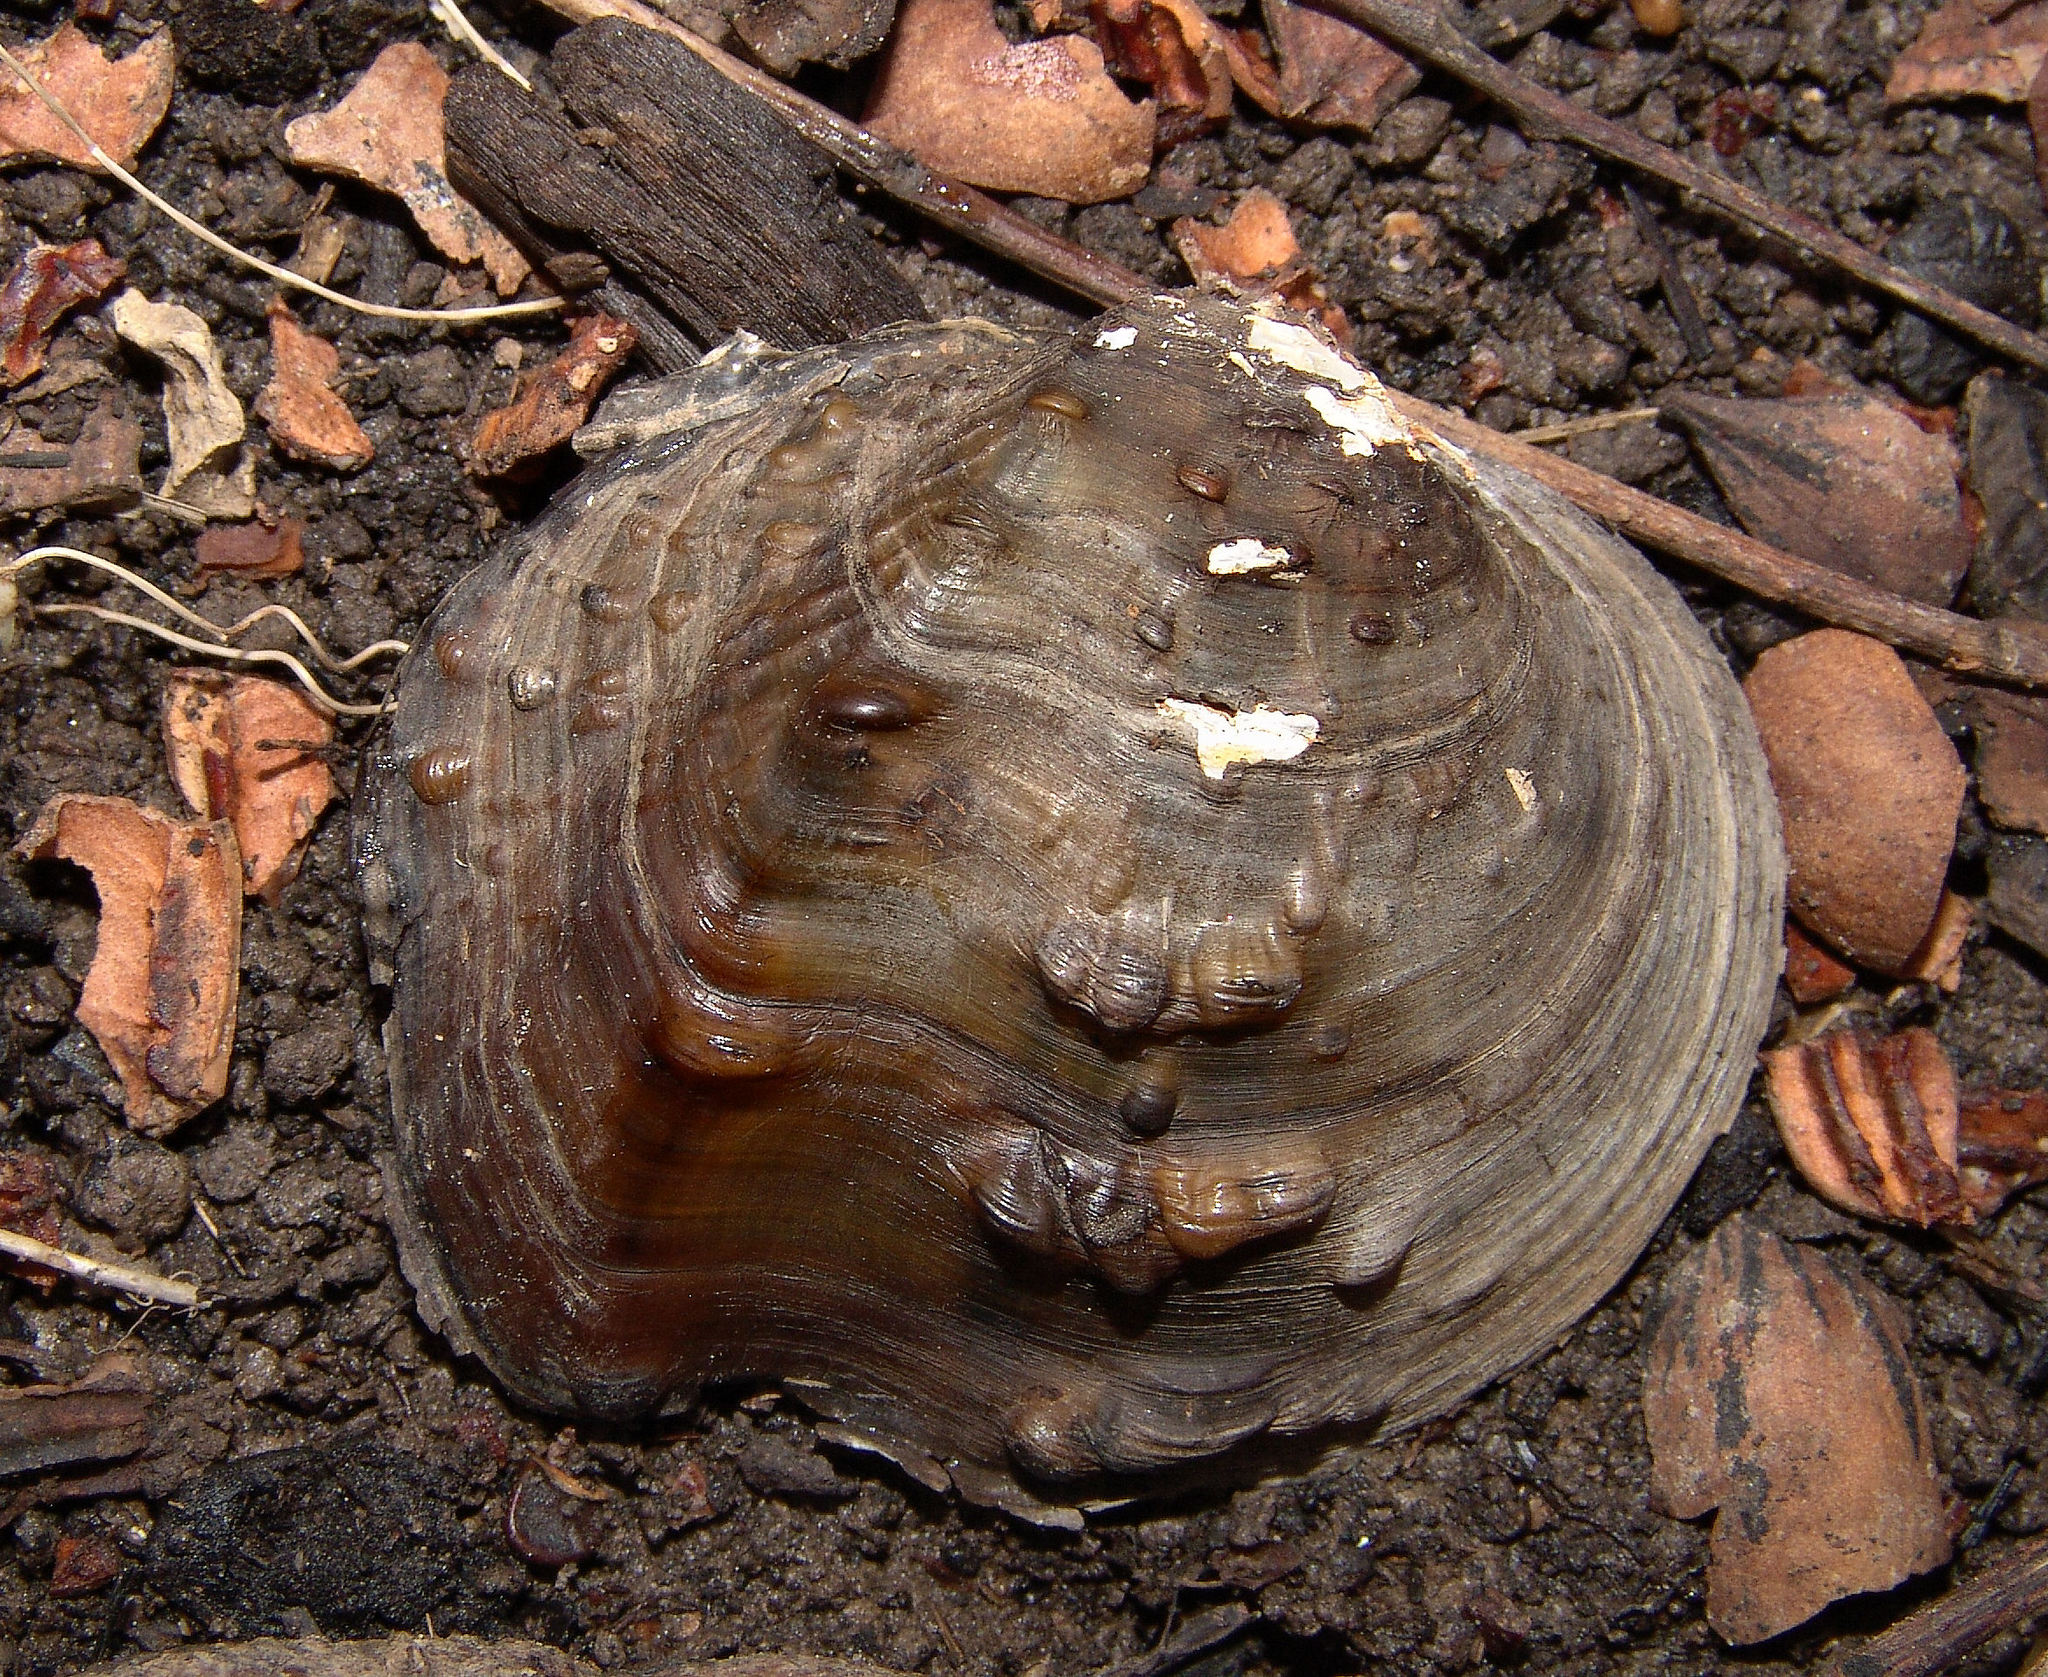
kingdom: Animalia
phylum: Mollusca
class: Bivalvia
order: Unionida
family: Unionidae
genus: Quadrula
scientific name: Quadrula quadrula
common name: Mapleleaf
